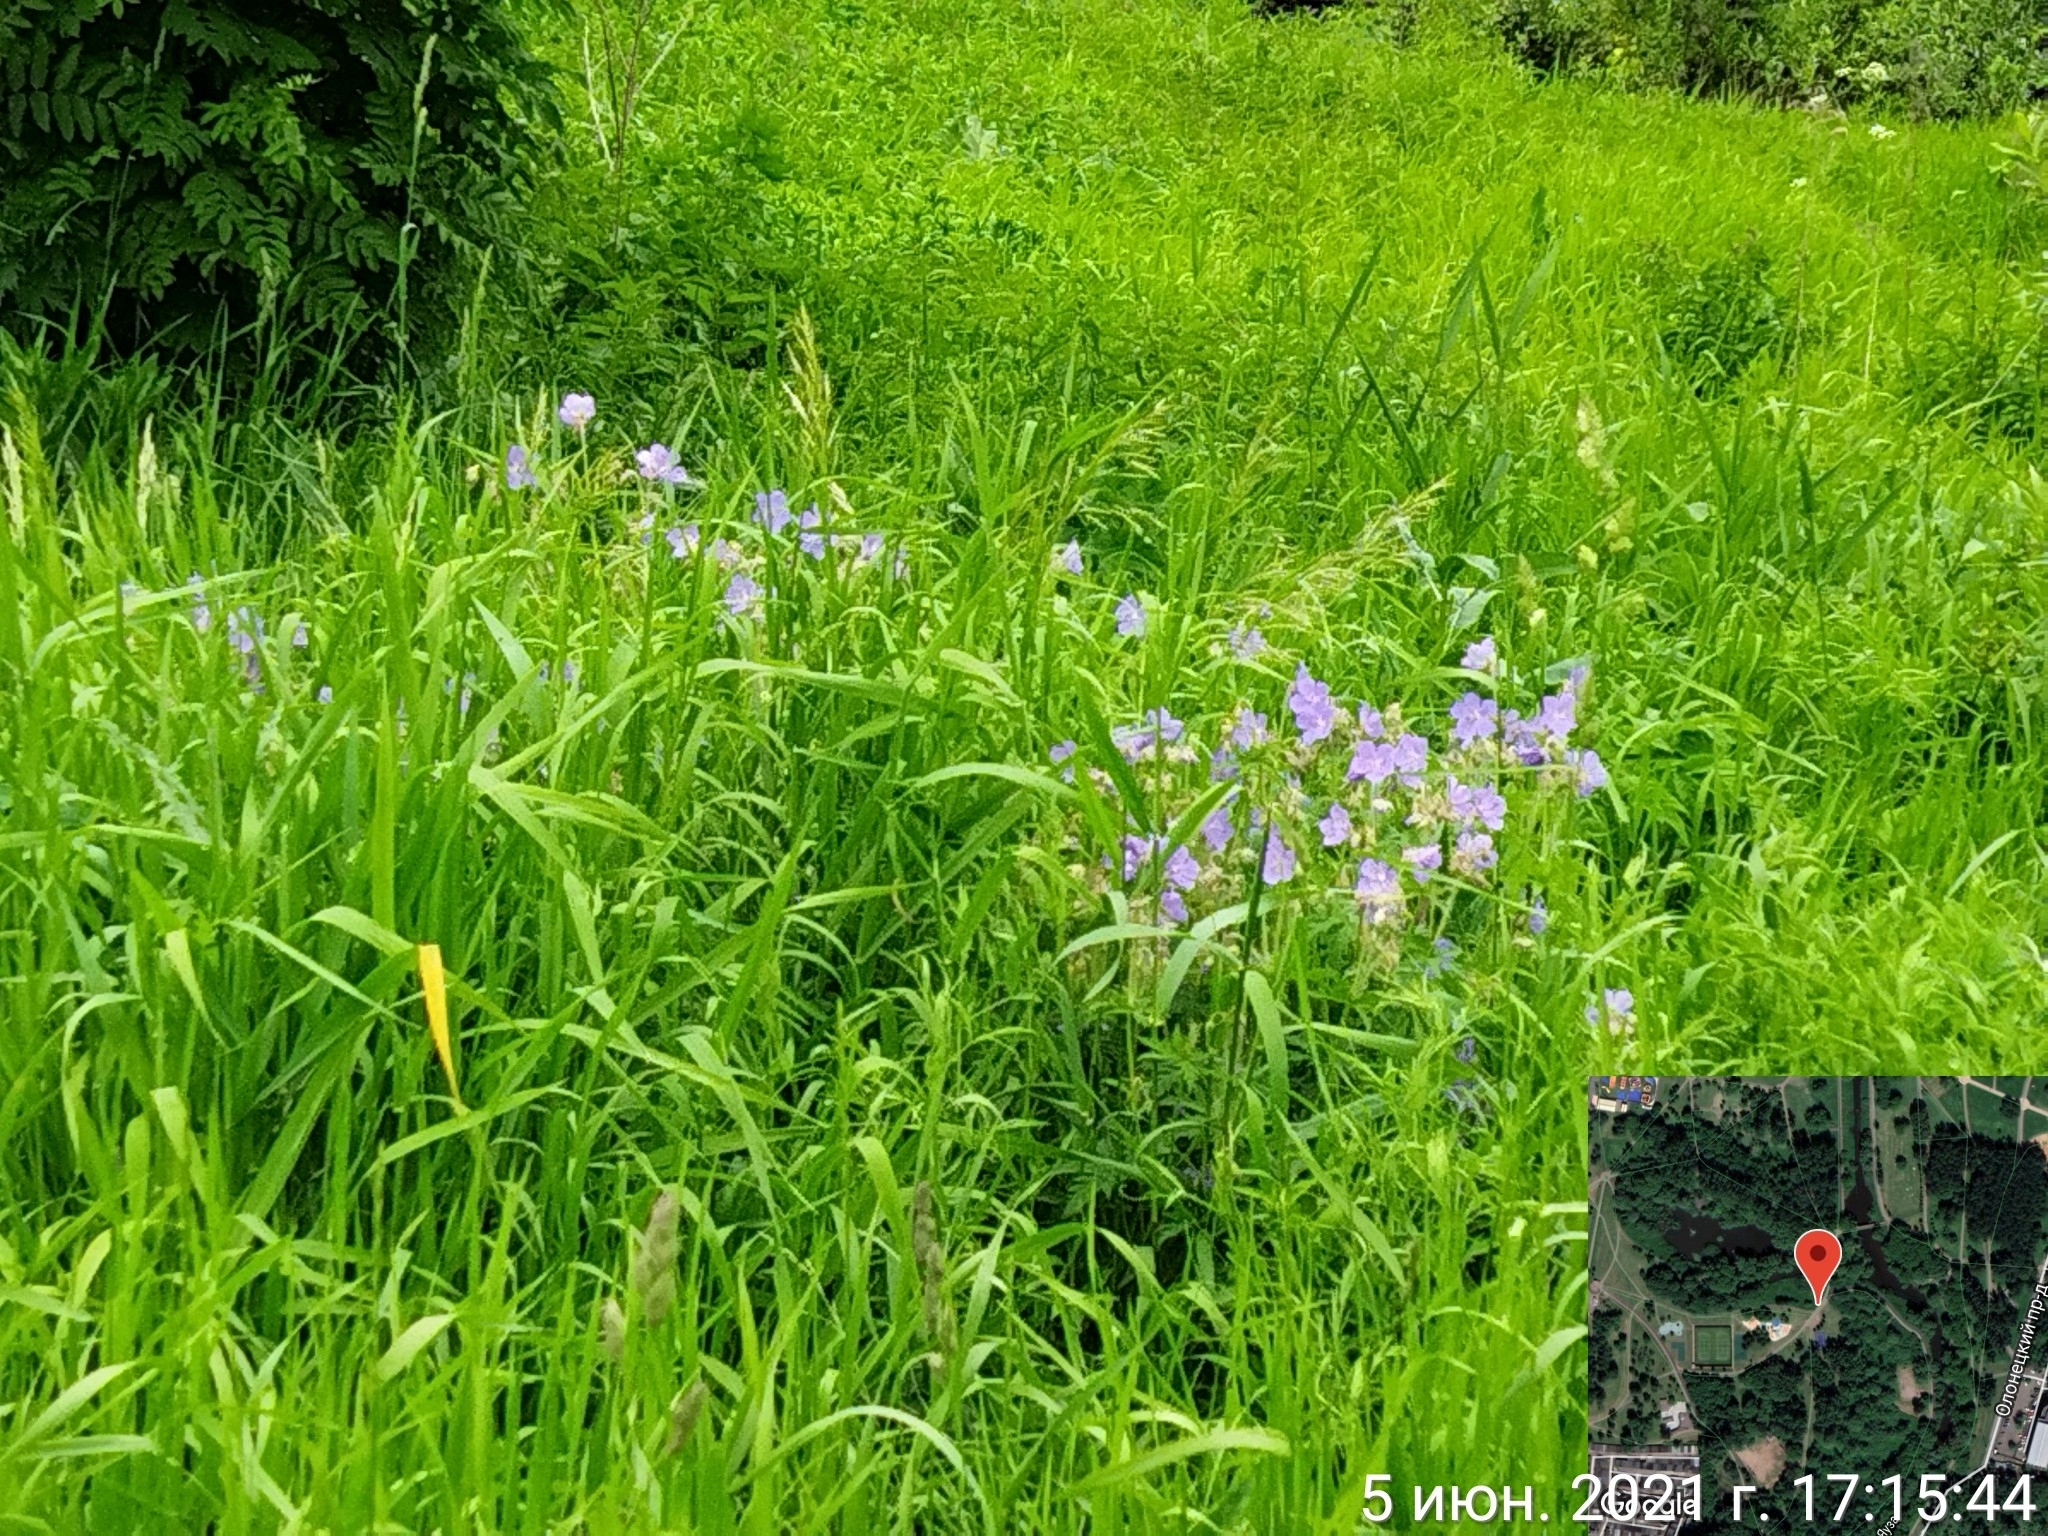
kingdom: Plantae
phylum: Tracheophyta
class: Magnoliopsida
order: Geraniales
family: Geraniaceae
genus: Geranium
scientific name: Geranium pratense
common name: Meadow crane's-bill
